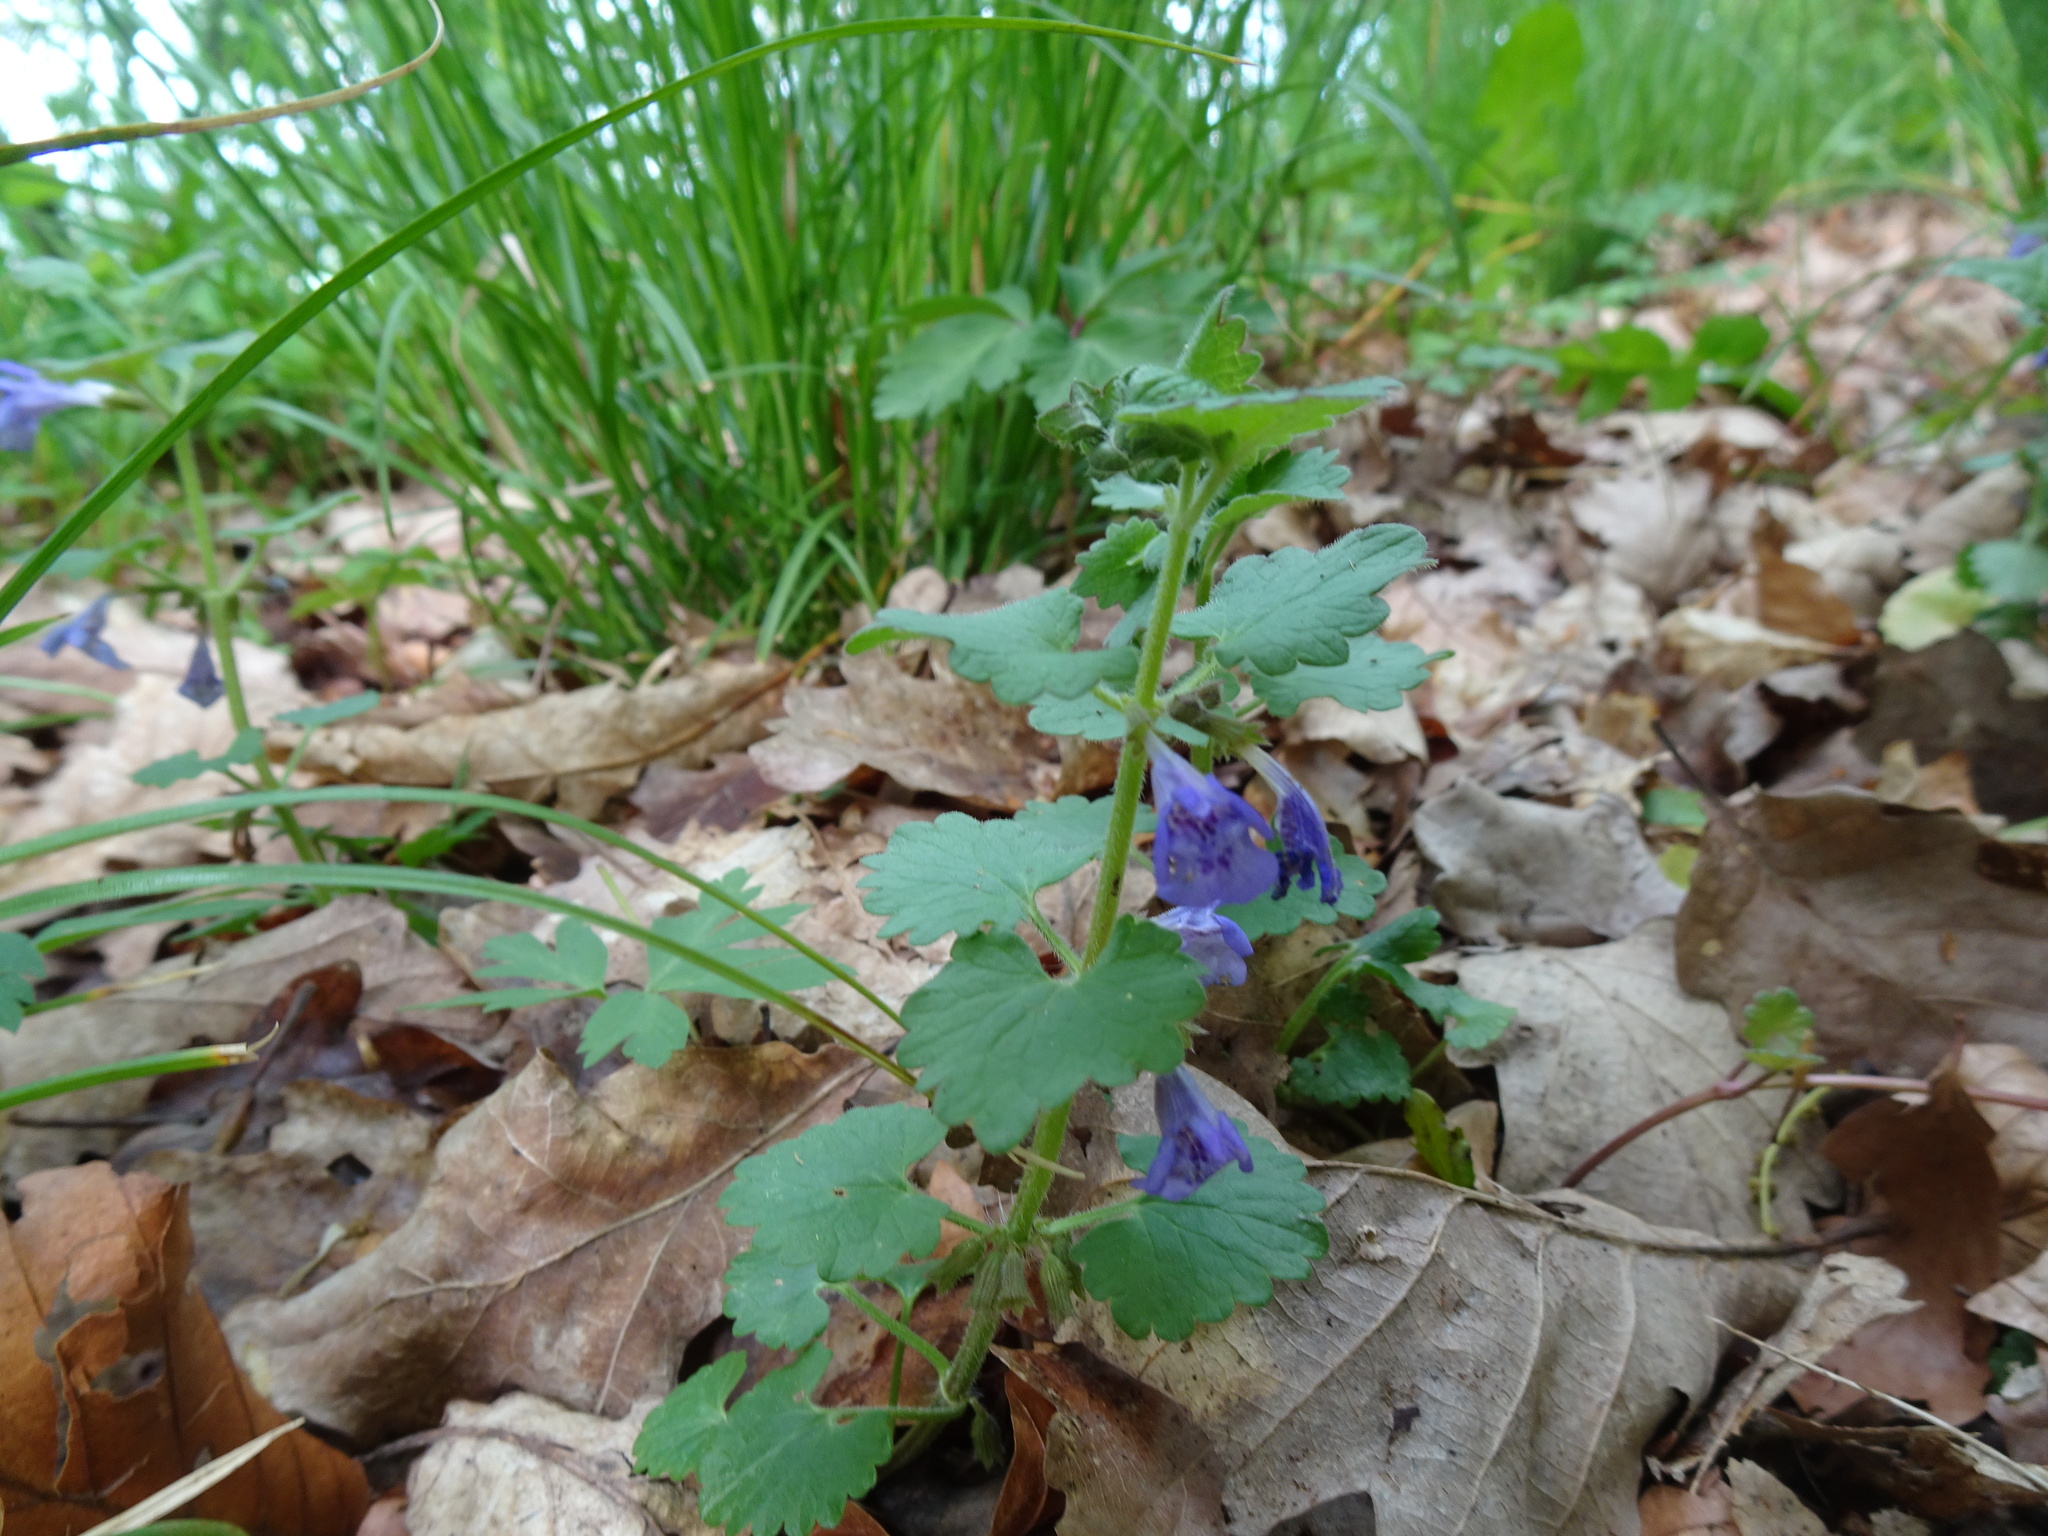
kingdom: Plantae
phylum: Tracheophyta
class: Magnoliopsida
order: Lamiales
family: Lamiaceae
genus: Glechoma
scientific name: Glechoma hederacea
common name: Ground ivy
